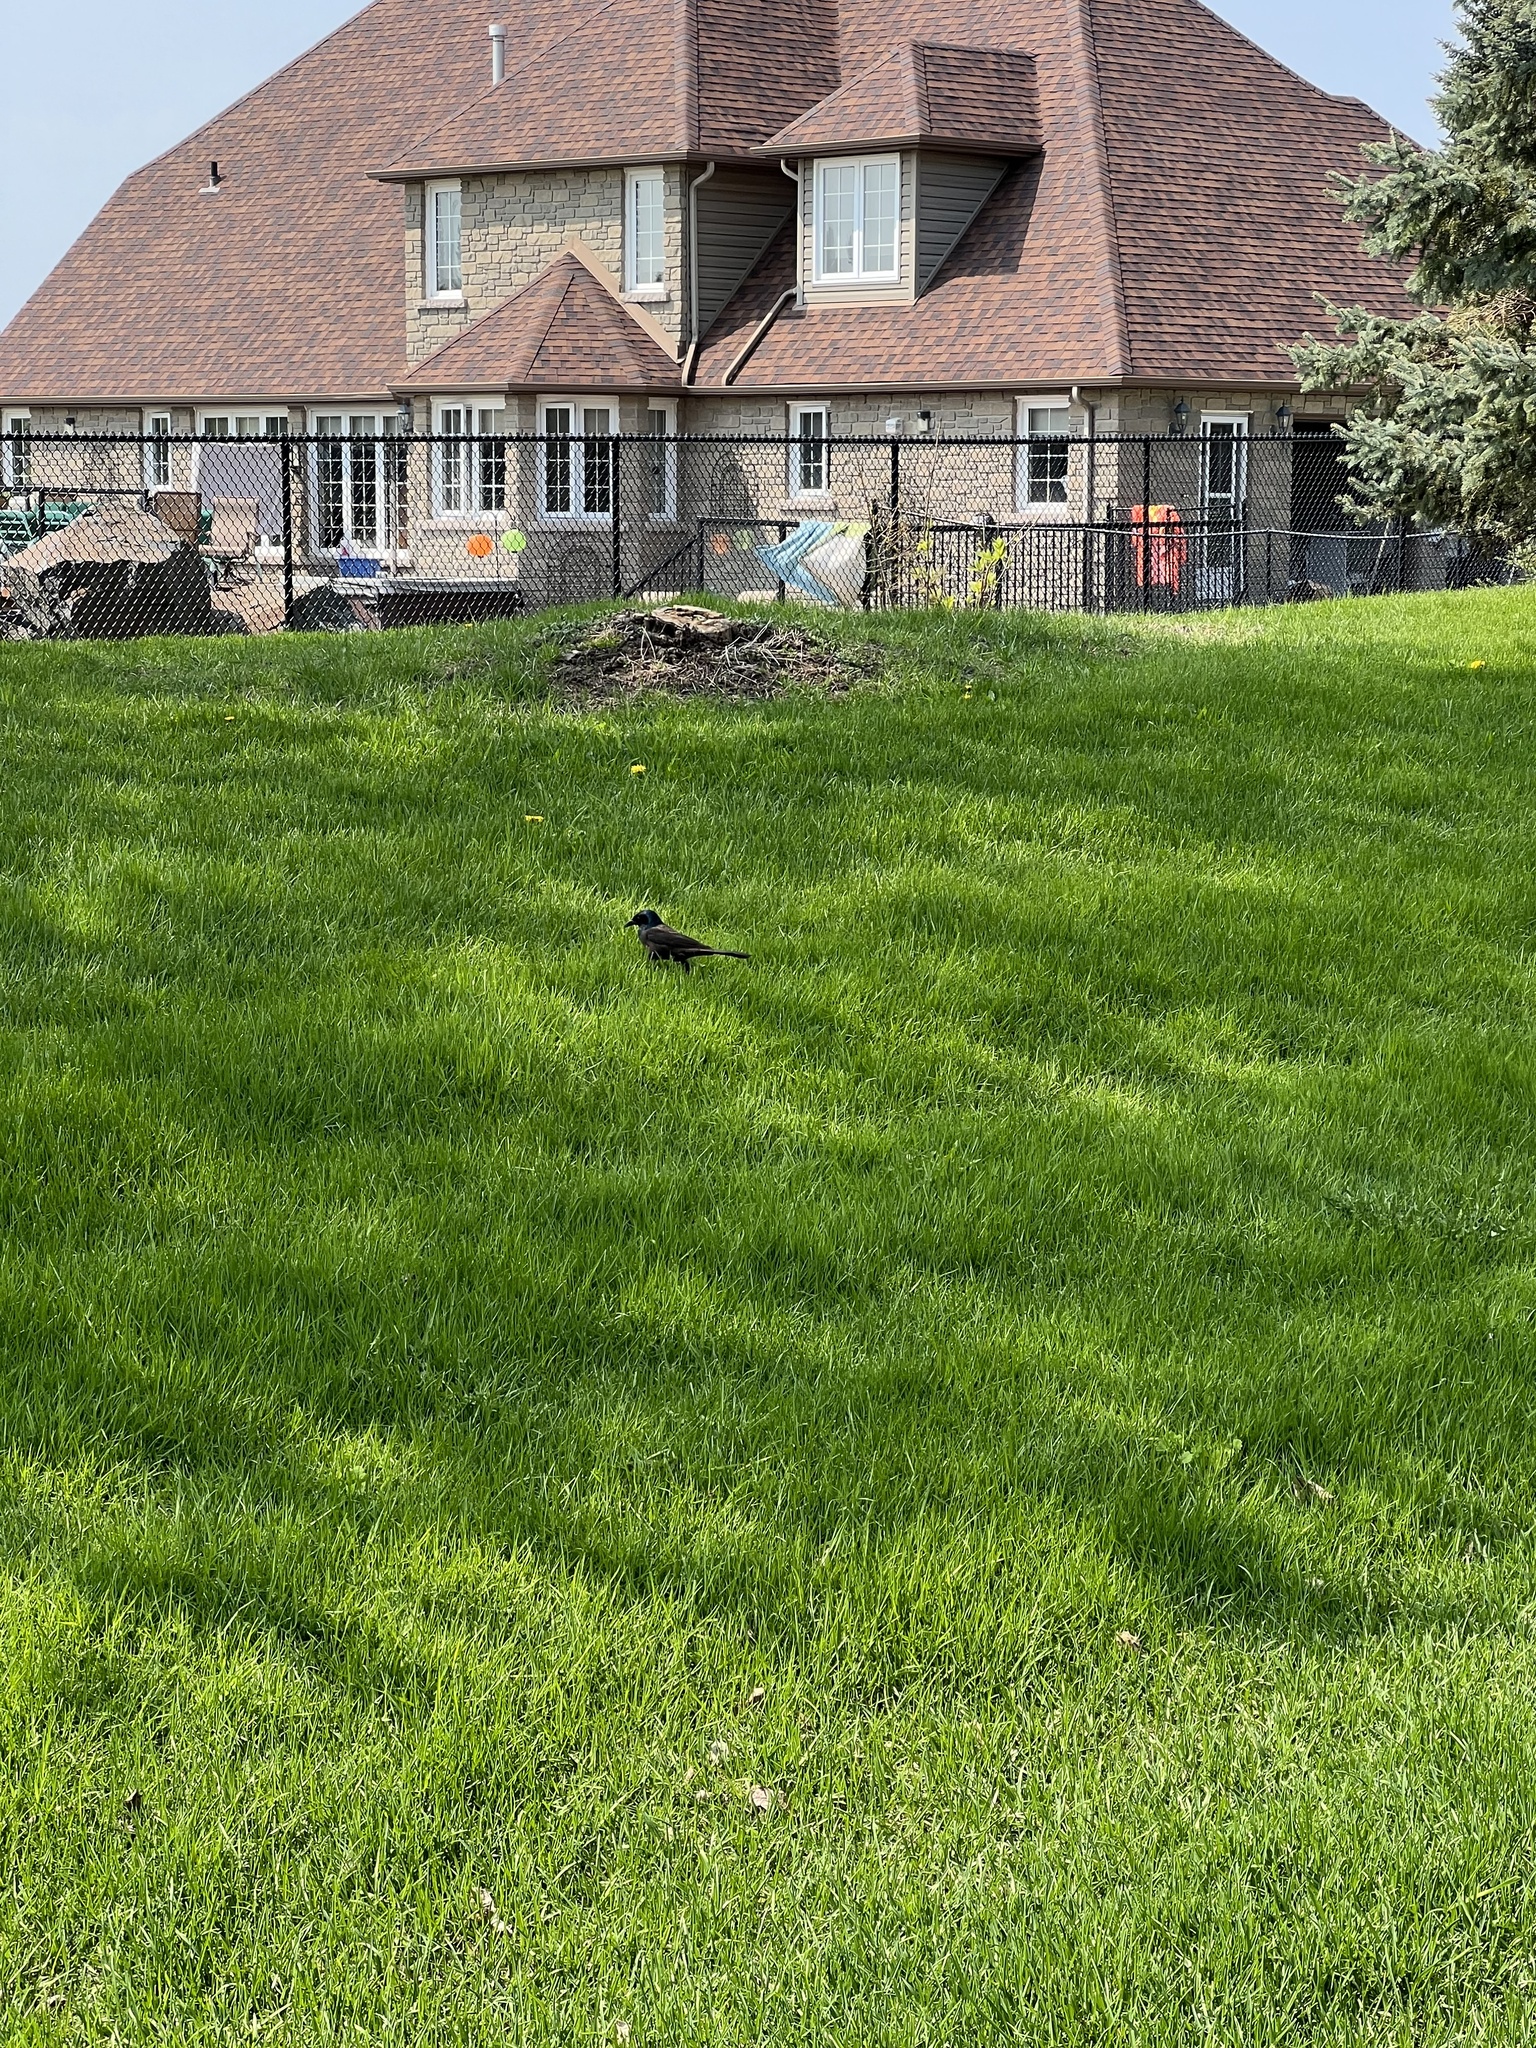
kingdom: Animalia
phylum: Chordata
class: Aves
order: Passeriformes
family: Icteridae
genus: Quiscalus
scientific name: Quiscalus quiscula
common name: Common grackle
